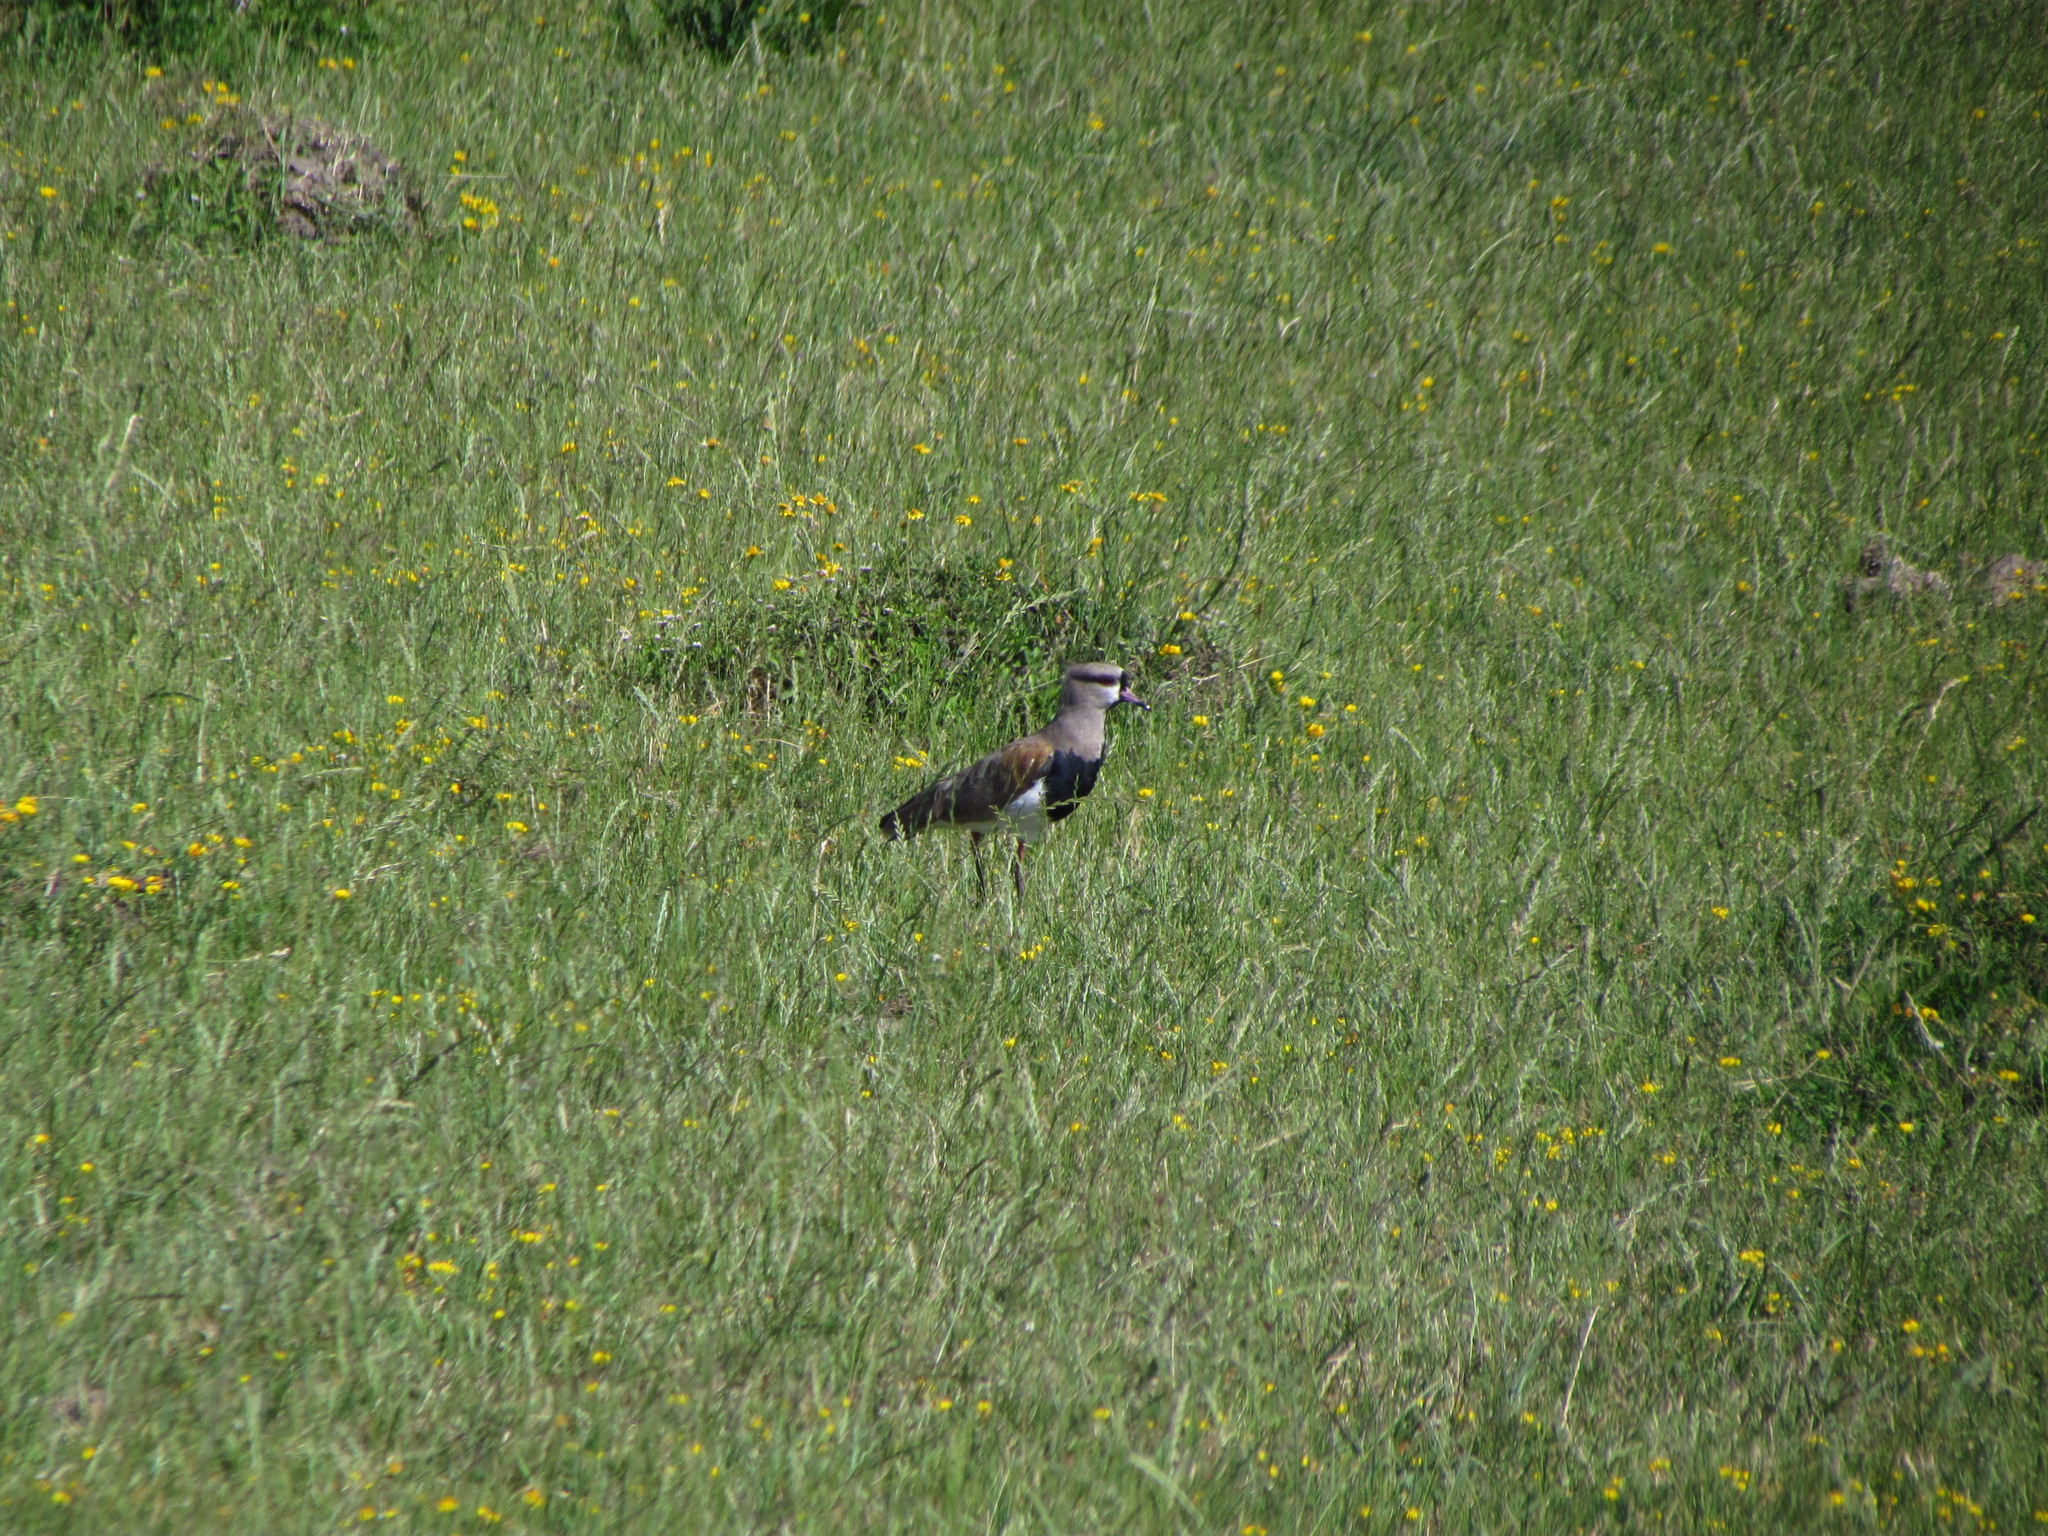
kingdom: Animalia
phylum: Chordata
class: Aves
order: Charadriiformes
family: Charadriidae
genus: Vanellus
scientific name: Vanellus chilensis
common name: Southern lapwing
